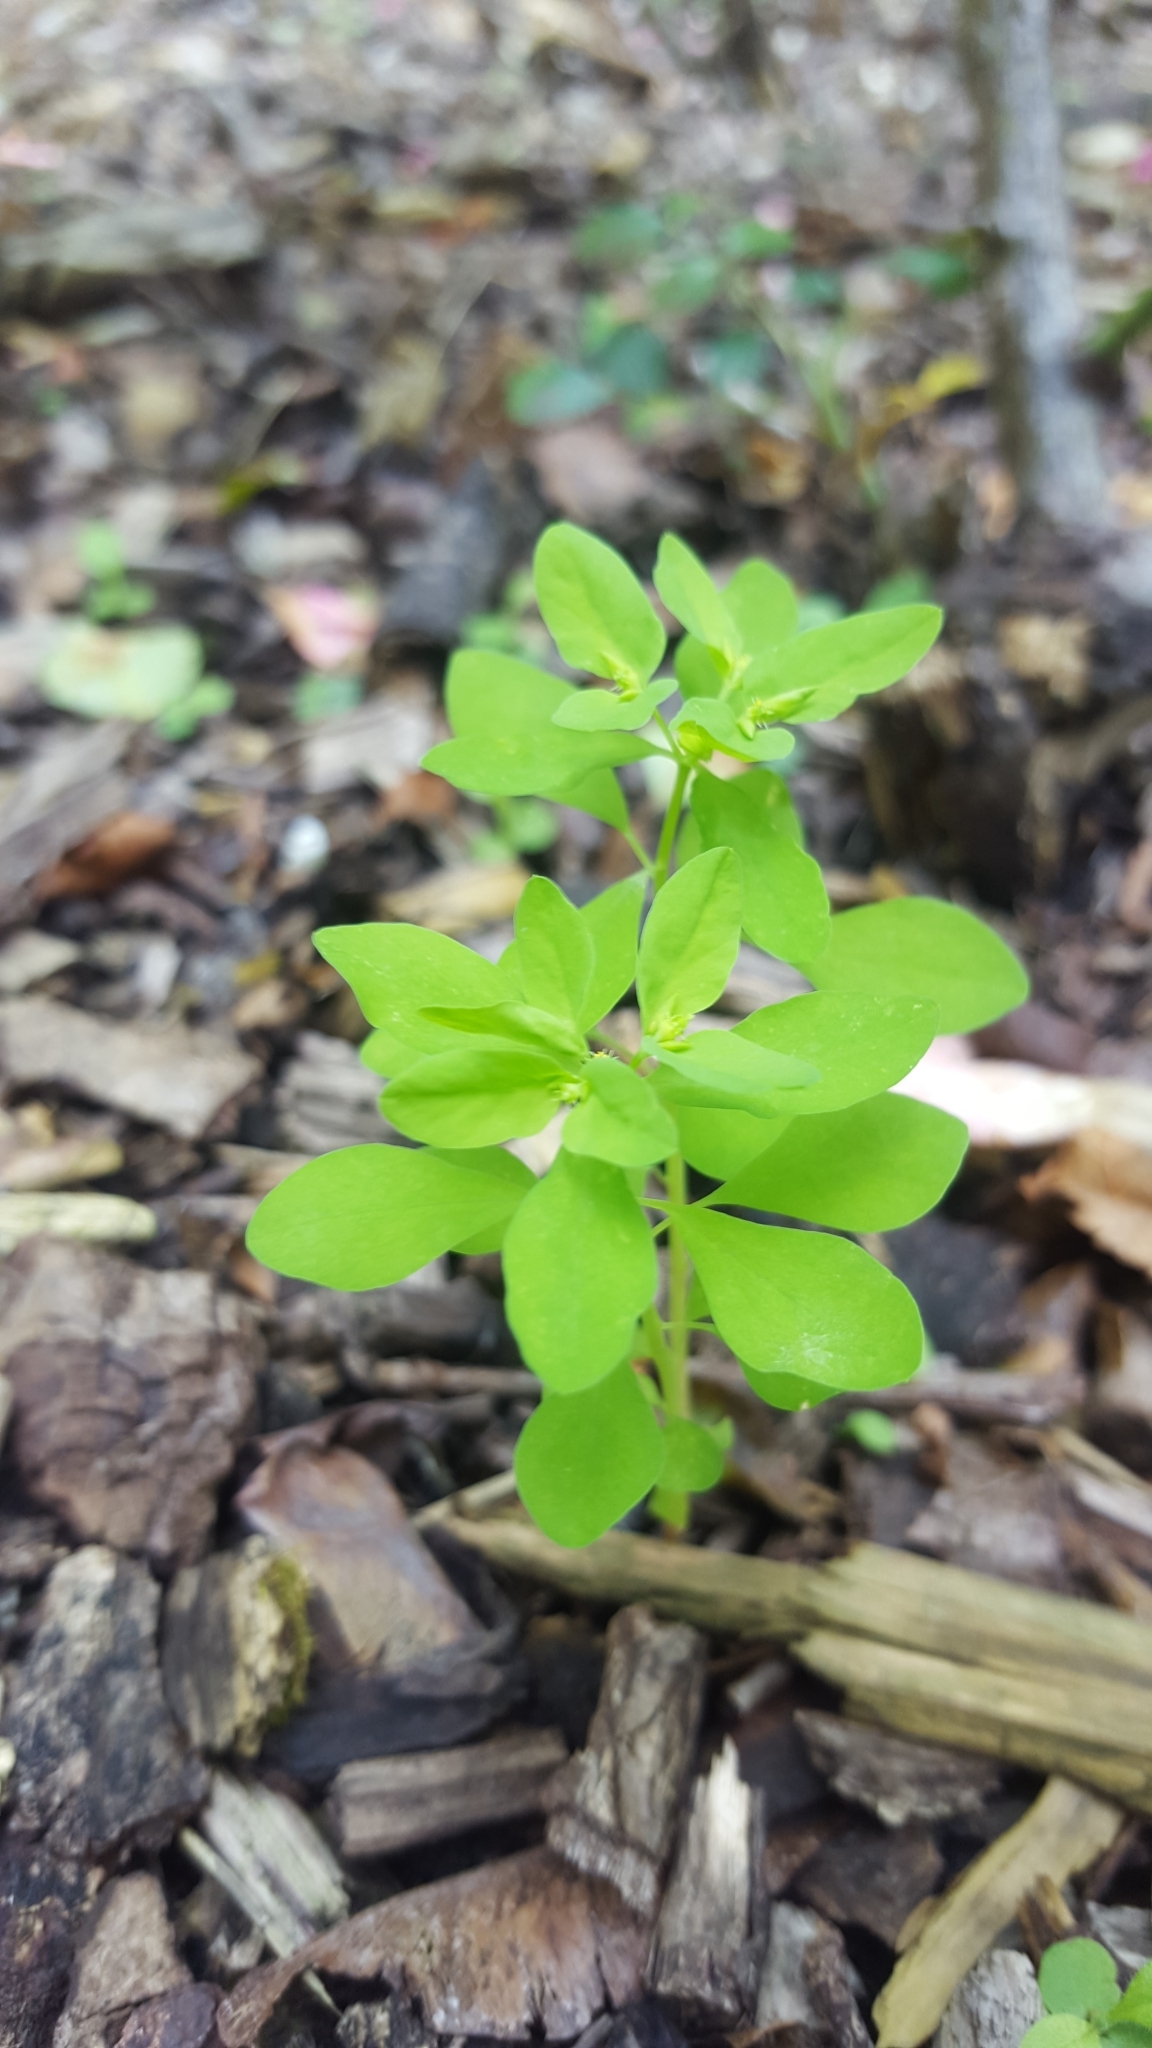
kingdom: Plantae
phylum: Tracheophyta
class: Magnoliopsida
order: Malpighiales
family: Euphorbiaceae
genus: Euphorbia
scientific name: Euphorbia peplus
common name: Petty spurge
